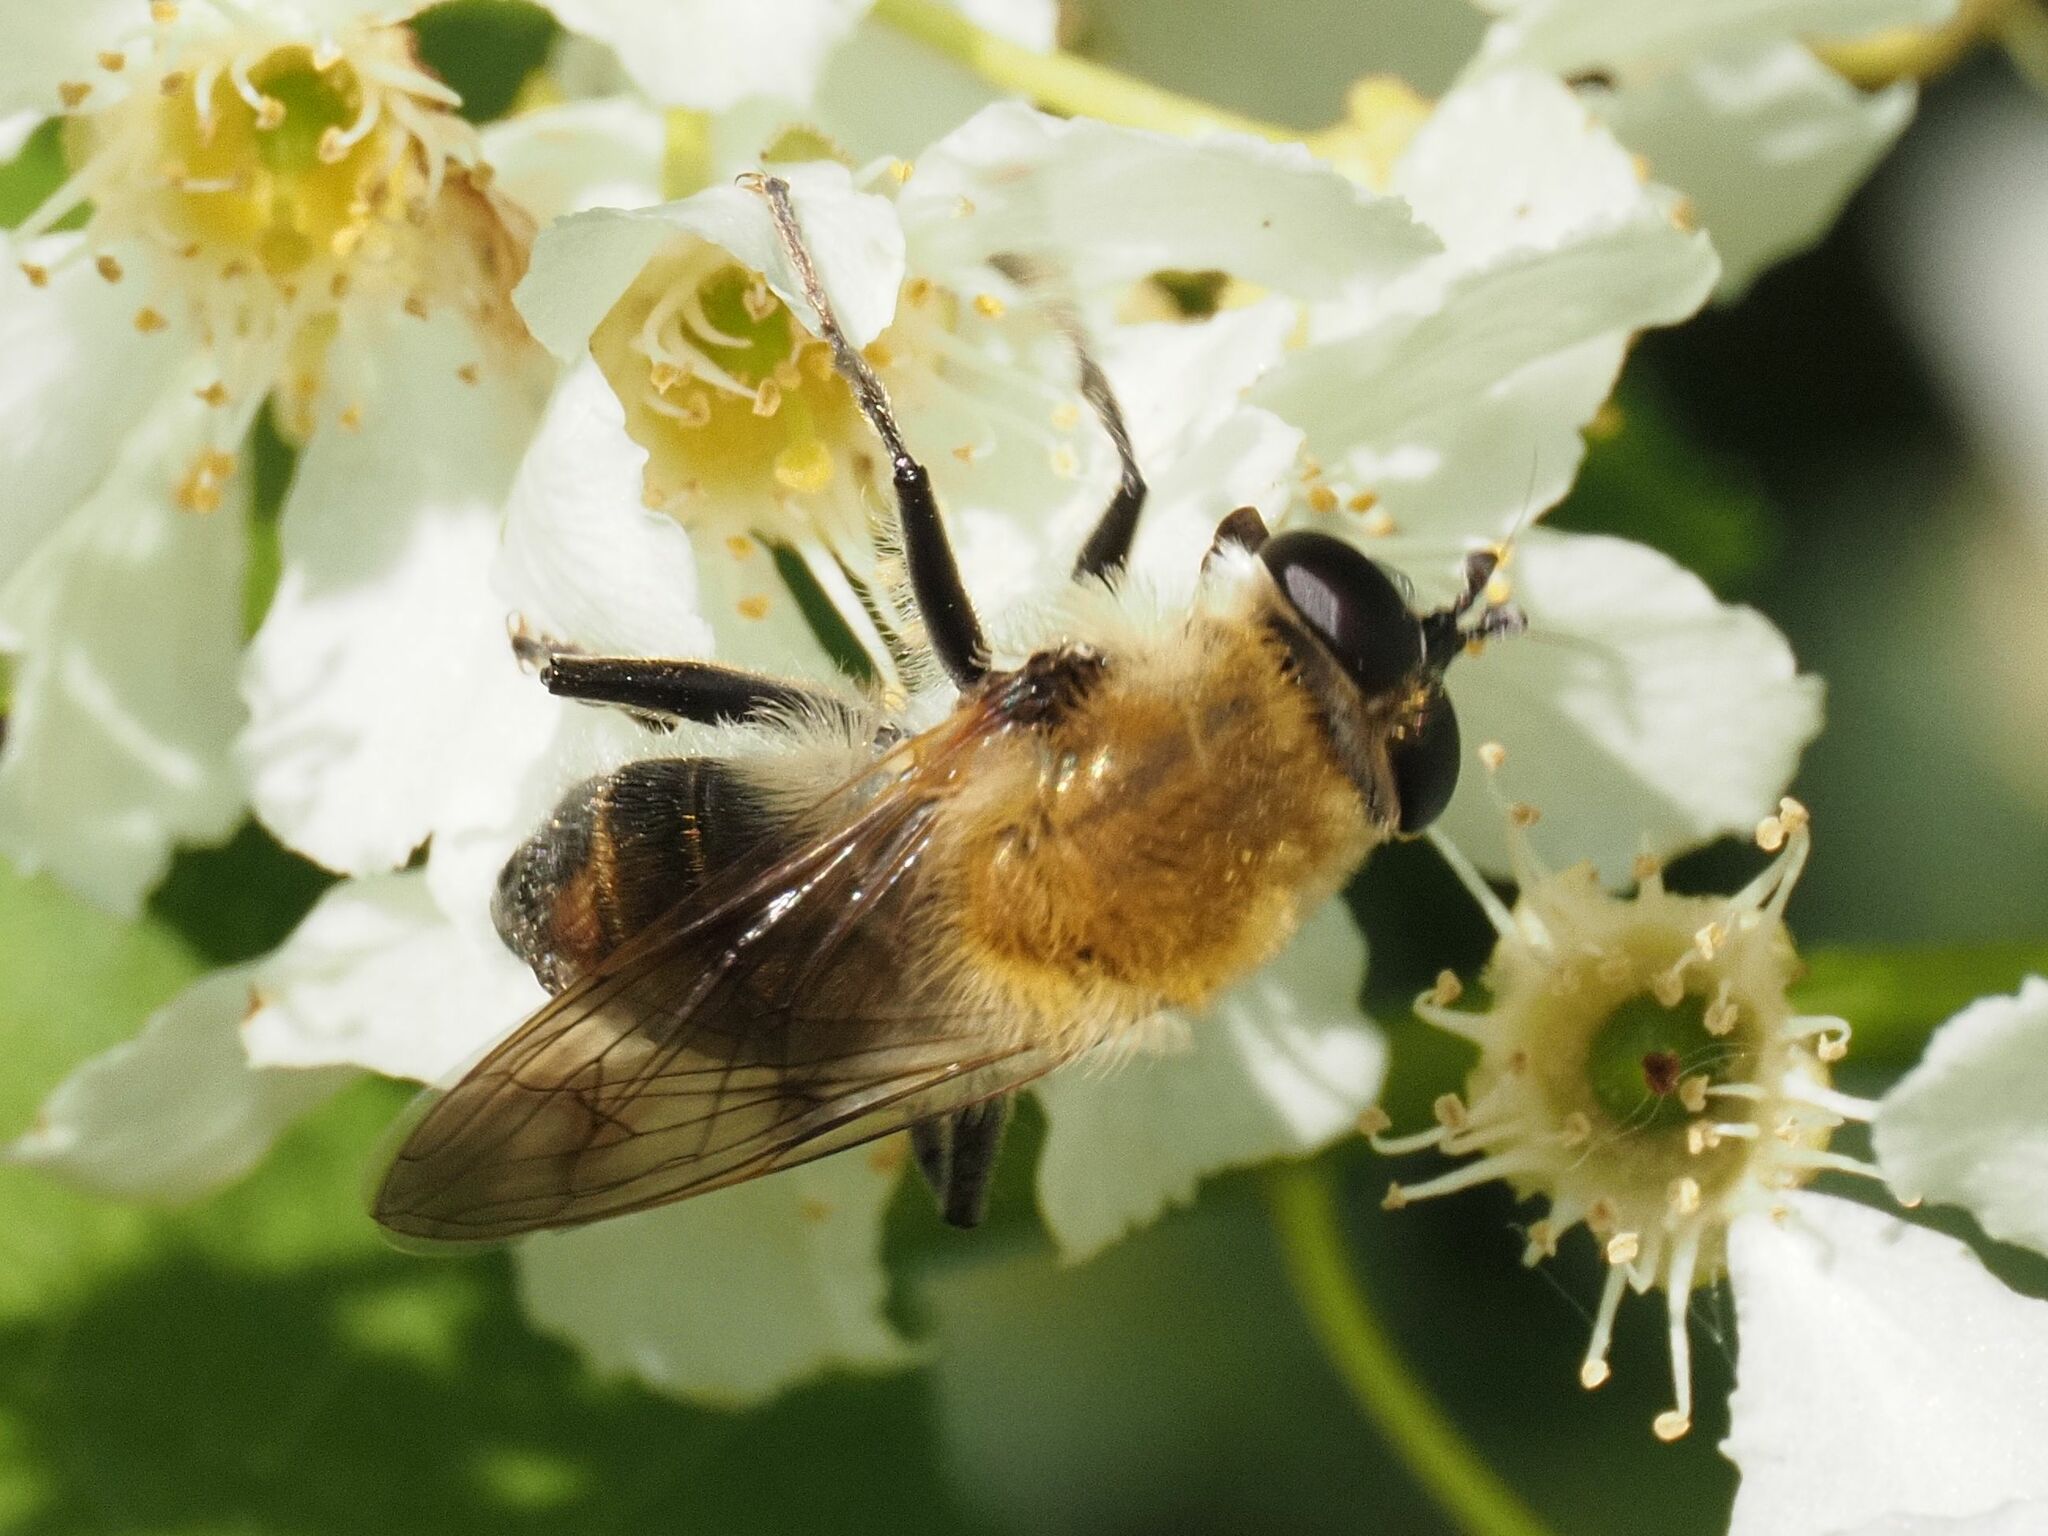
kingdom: Animalia
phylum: Arthropoda
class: Insecta
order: Diptera
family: Syrphidae
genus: Criorhina
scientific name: Criorhina floccosa
